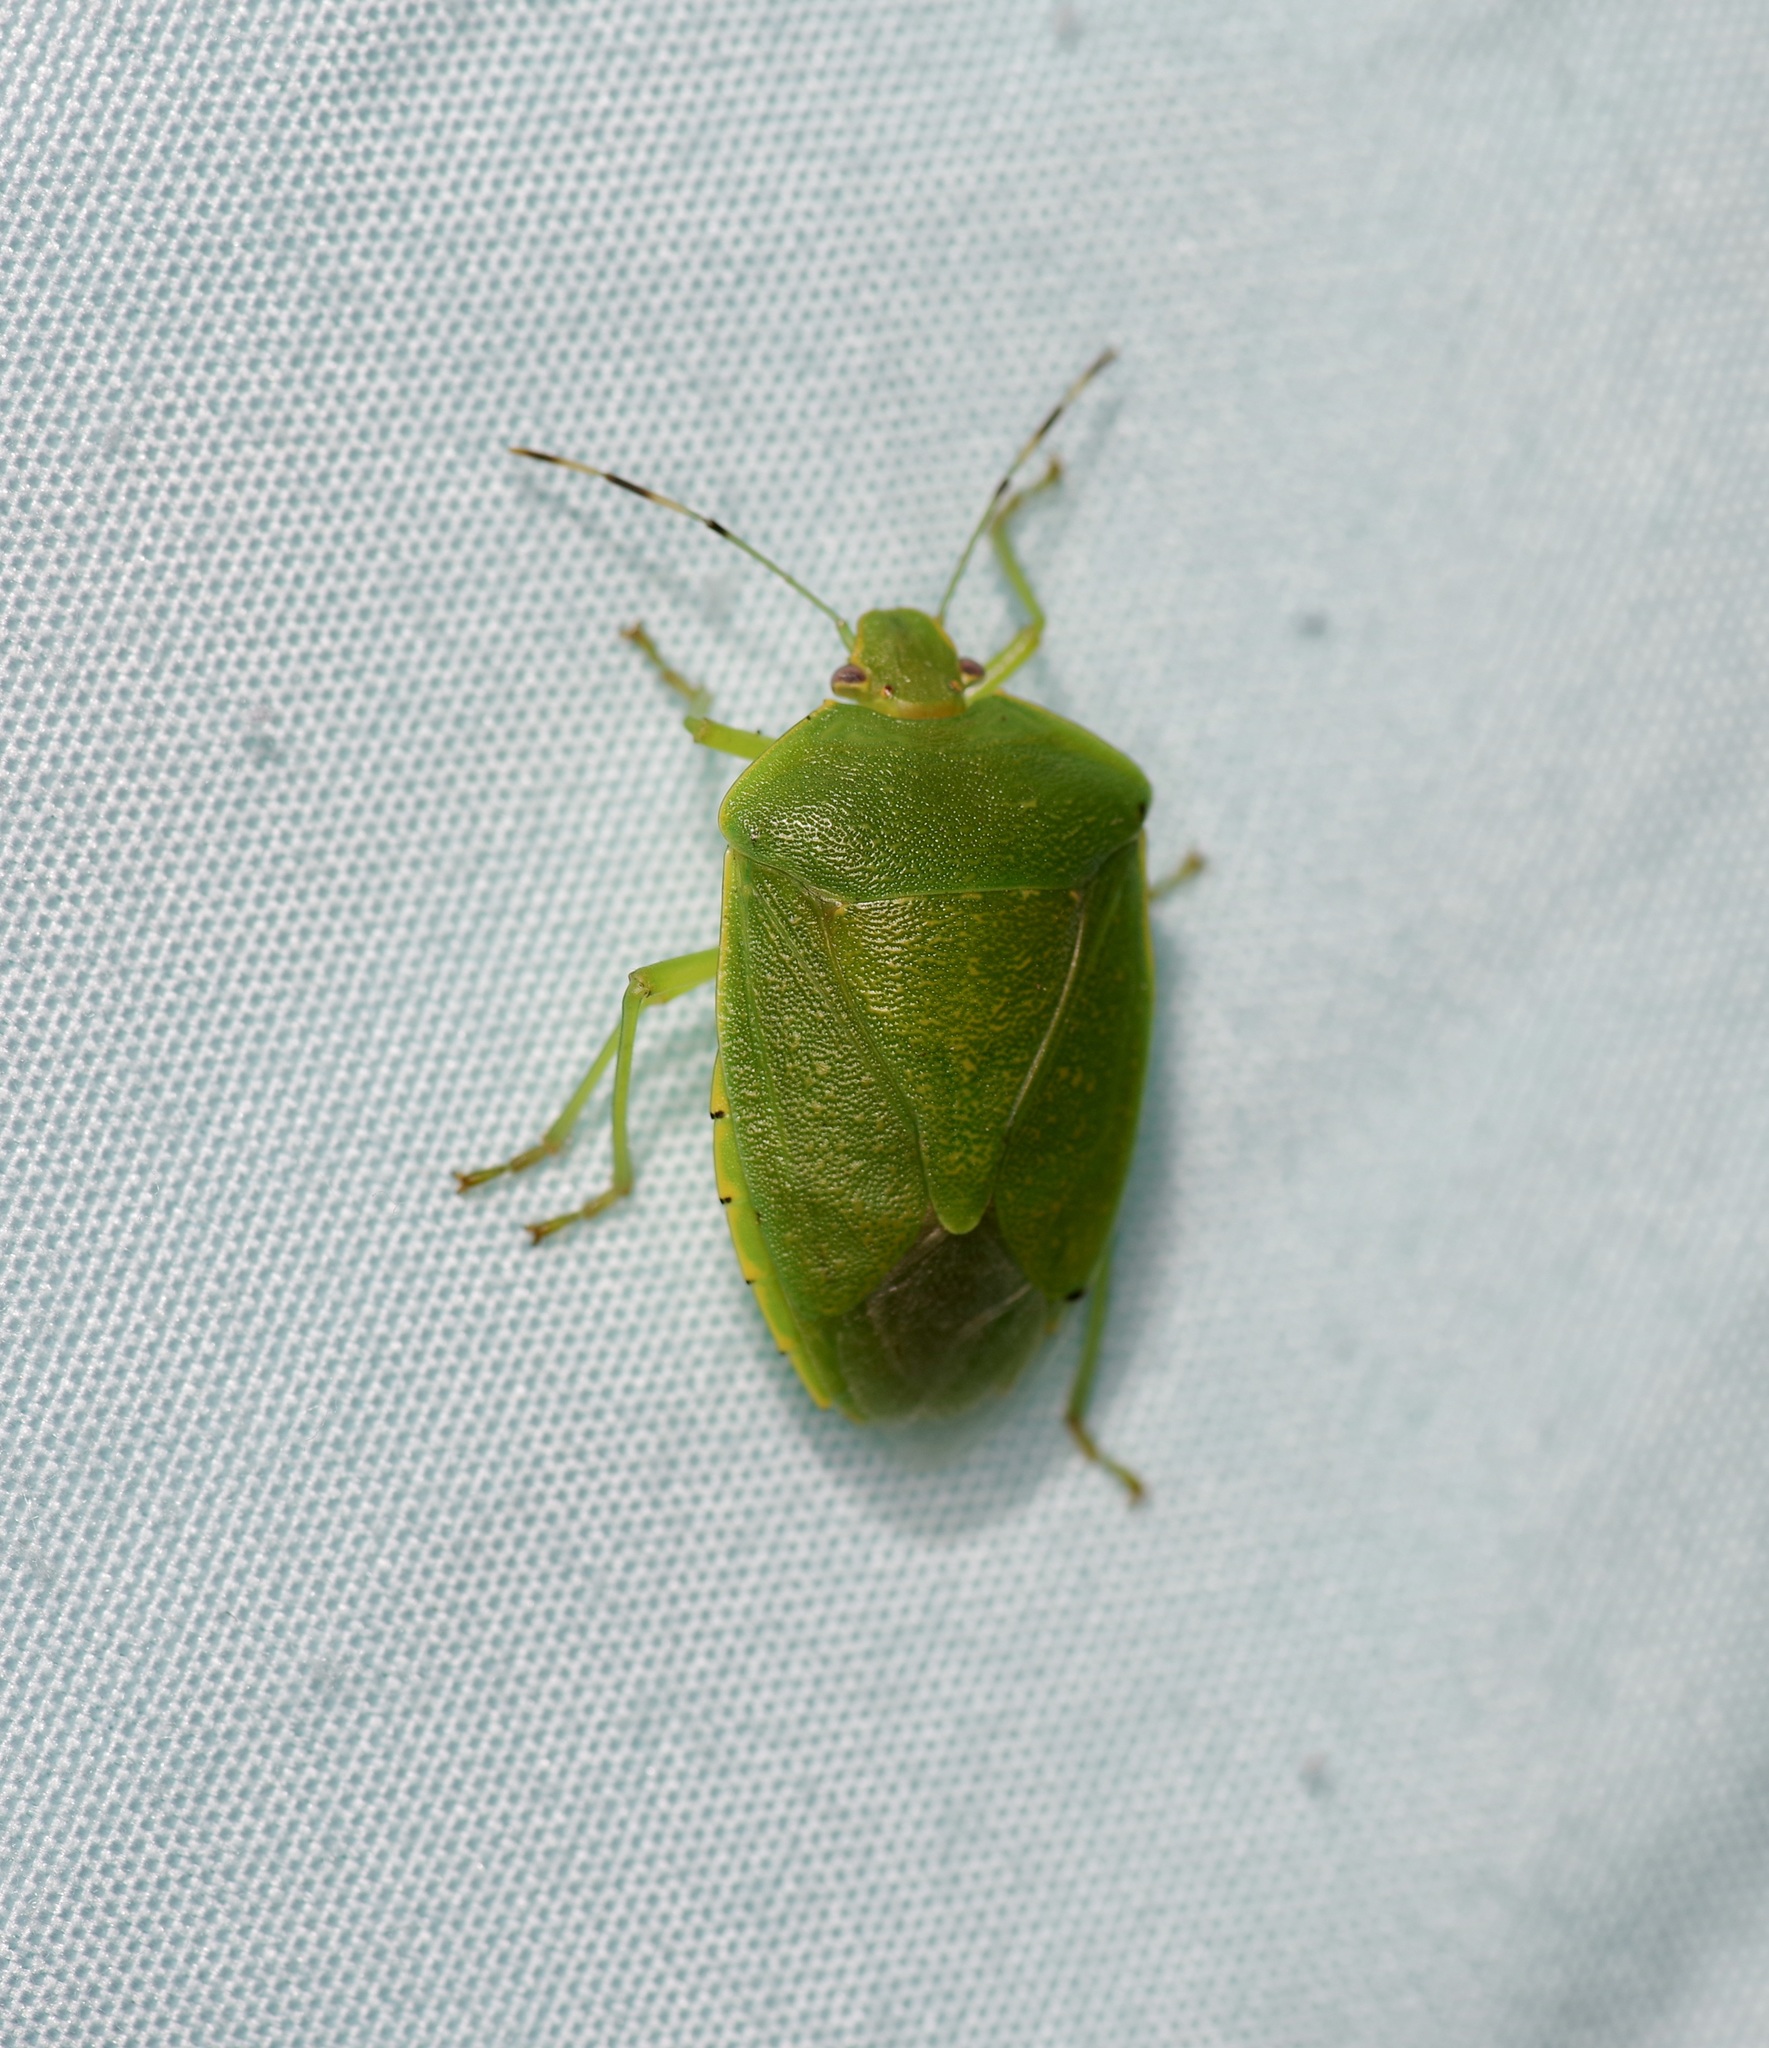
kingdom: Animalia
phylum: Arthropoda
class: Insecta
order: Hemiptera
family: Pentatomidae
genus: Chinavia
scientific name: Chinavia hilaris
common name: Green stink bug
